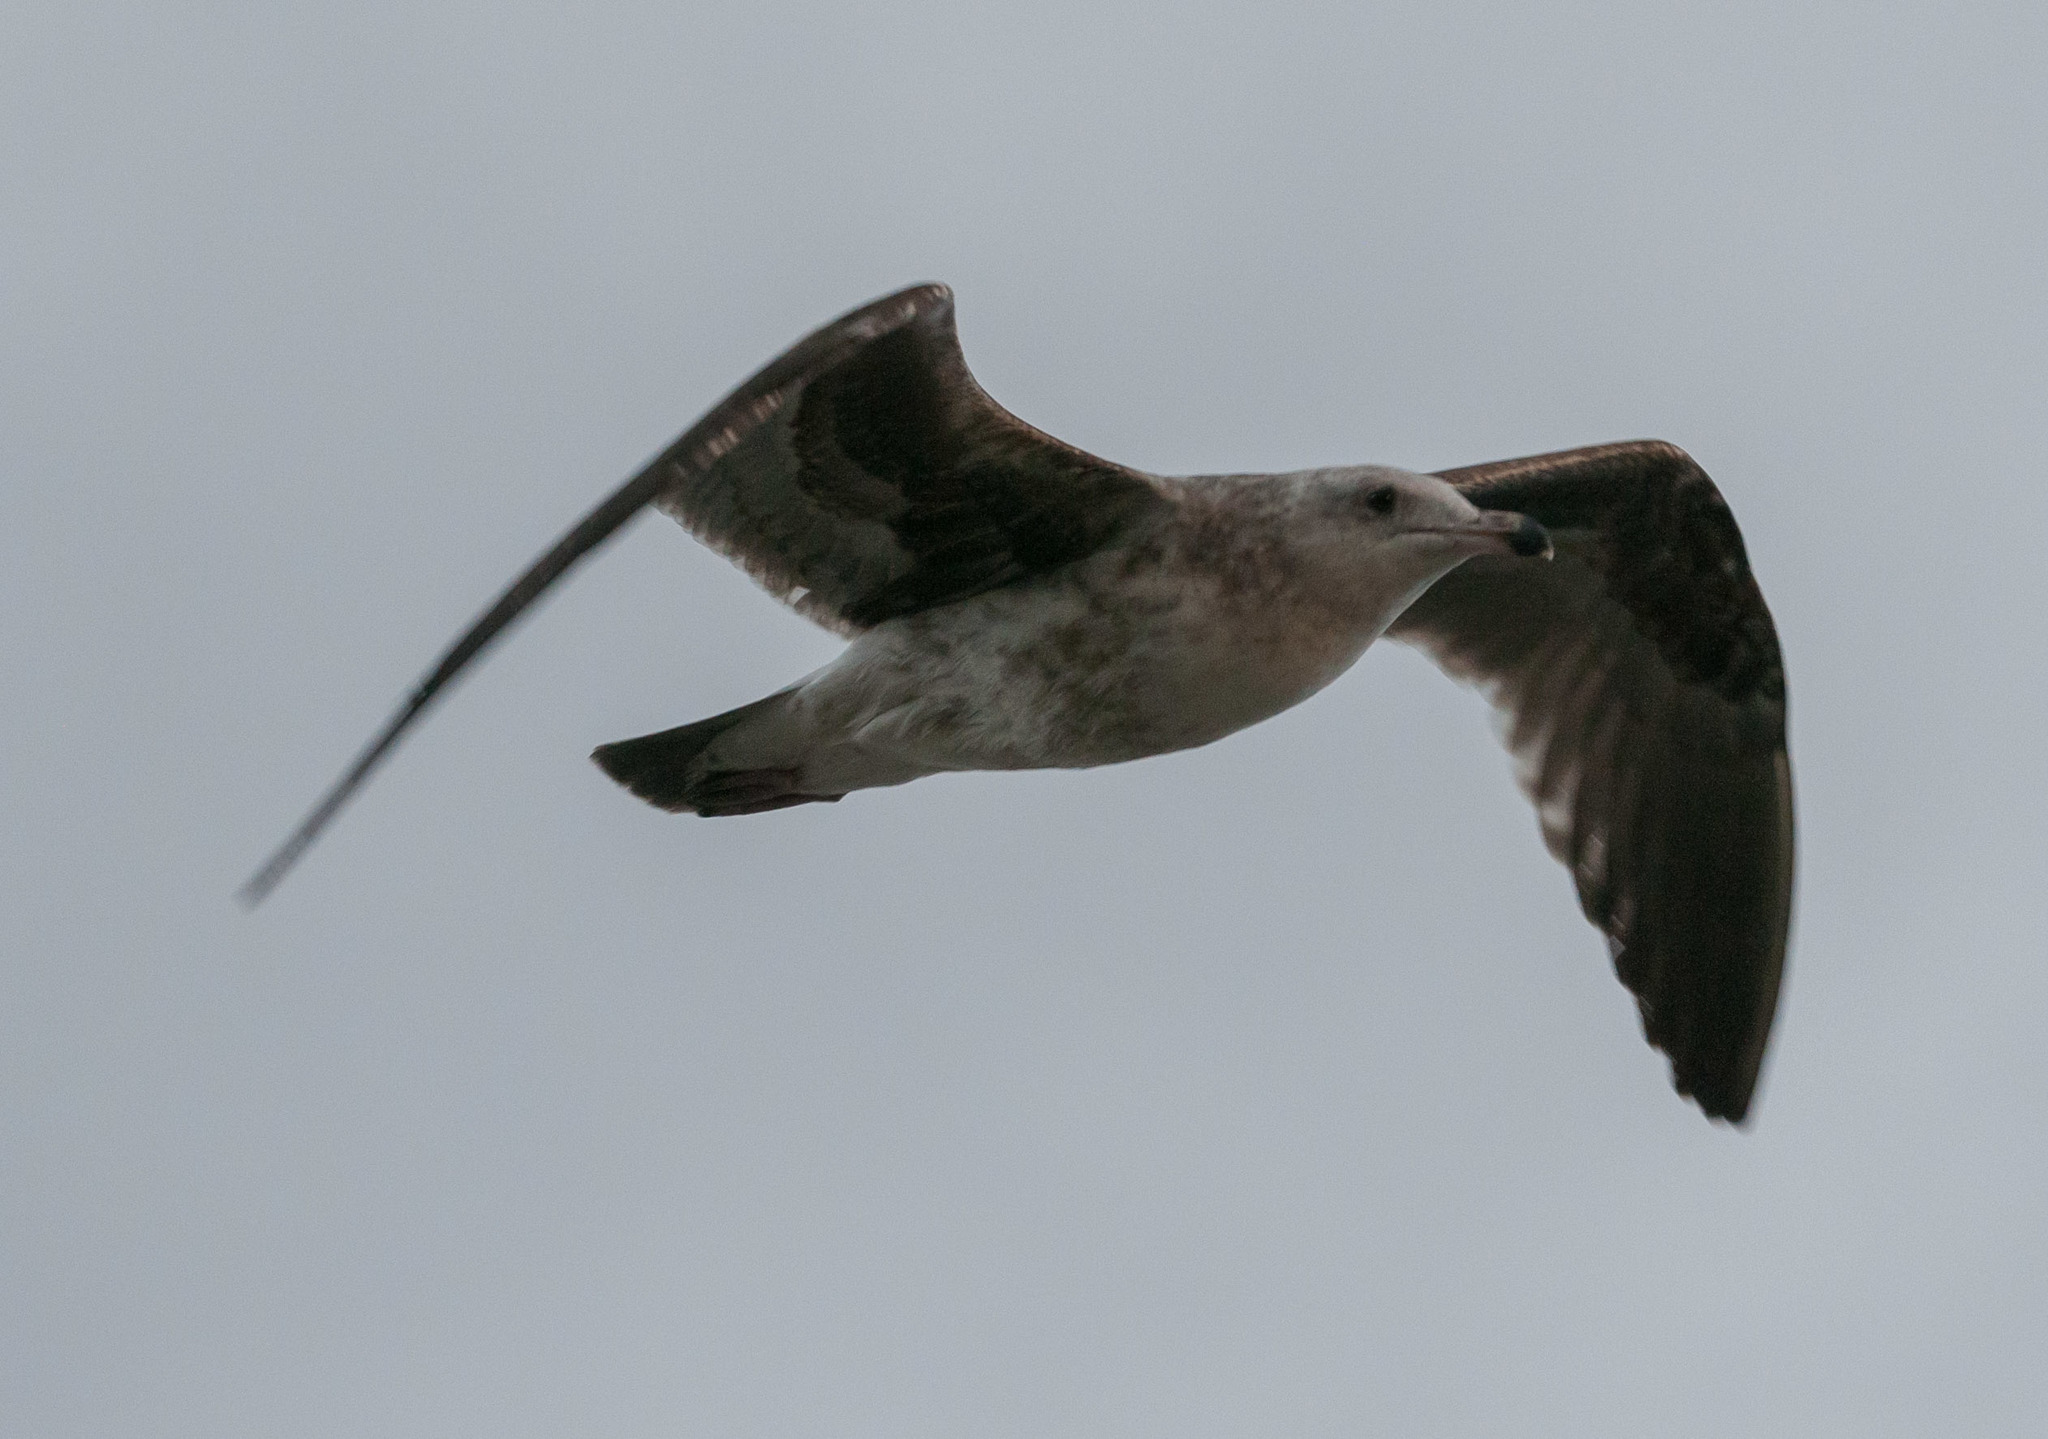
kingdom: Animalia
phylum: Chordata
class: Aves
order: Charadriiformes
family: Laridae
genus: Larus
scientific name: Larus californicus
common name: California gull
